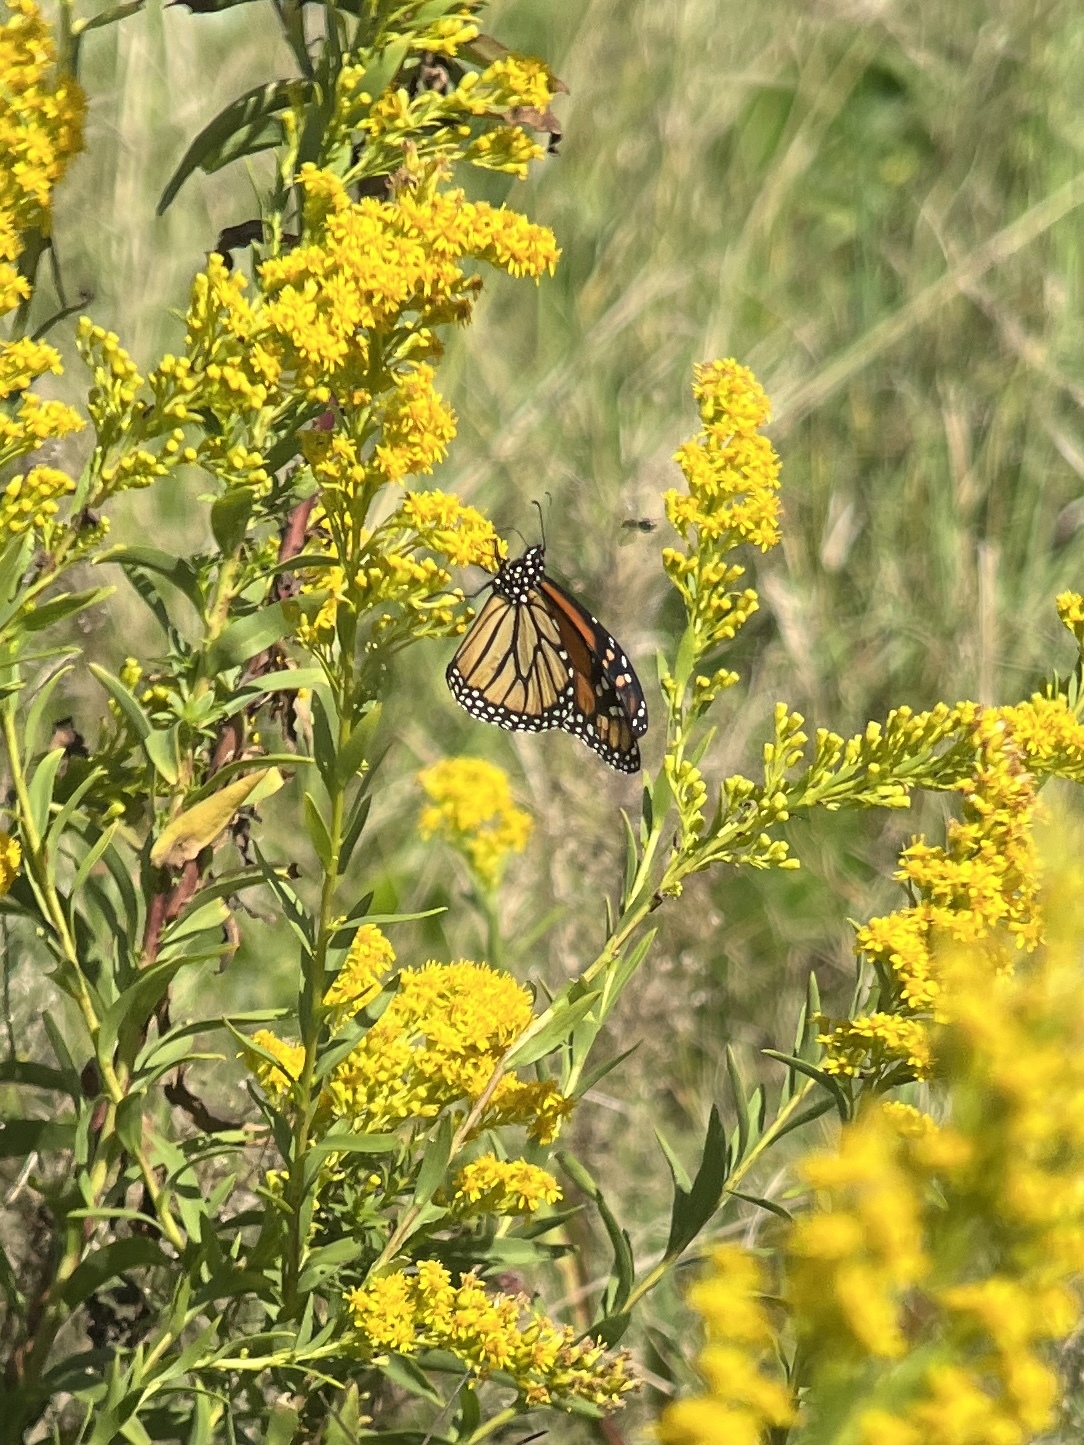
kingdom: Animalia
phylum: Arthropoda
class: Insecta
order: Lepidoptera
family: Nymphalidae
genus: Danaus
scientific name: Danaus plexippus
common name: Monarch
